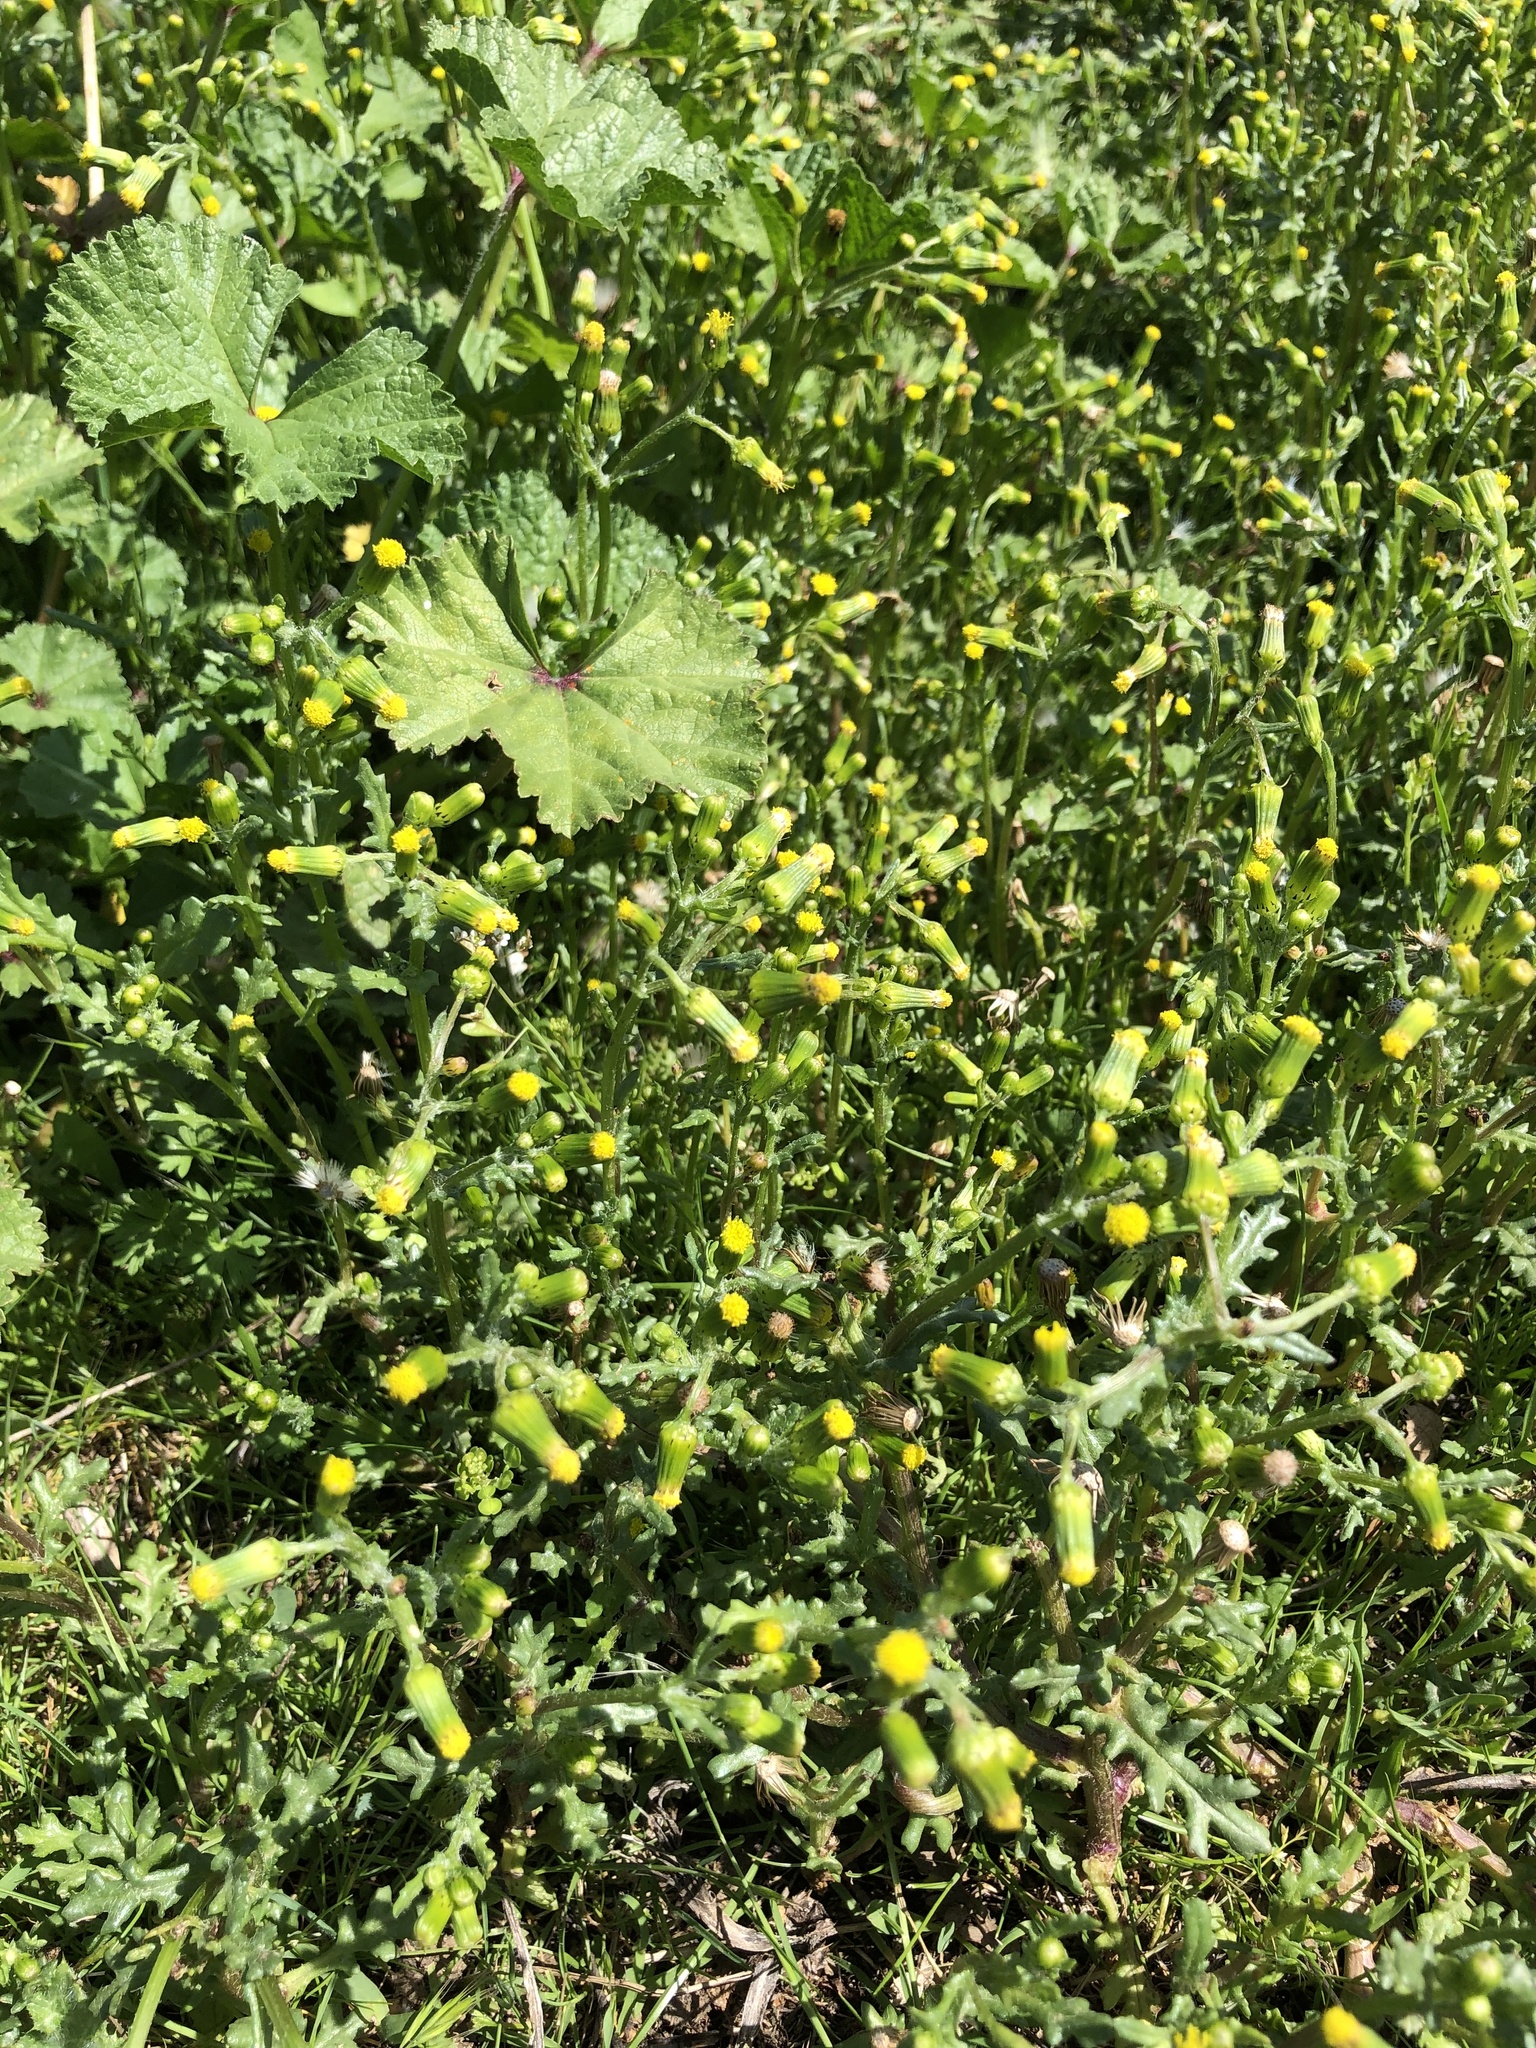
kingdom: Plantae
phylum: Tracheophyta
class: Magnoliopsida
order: Asterales
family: Asteraceae
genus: Senecio
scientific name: Senecio vulgaris
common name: Old-man-in-the-spring
